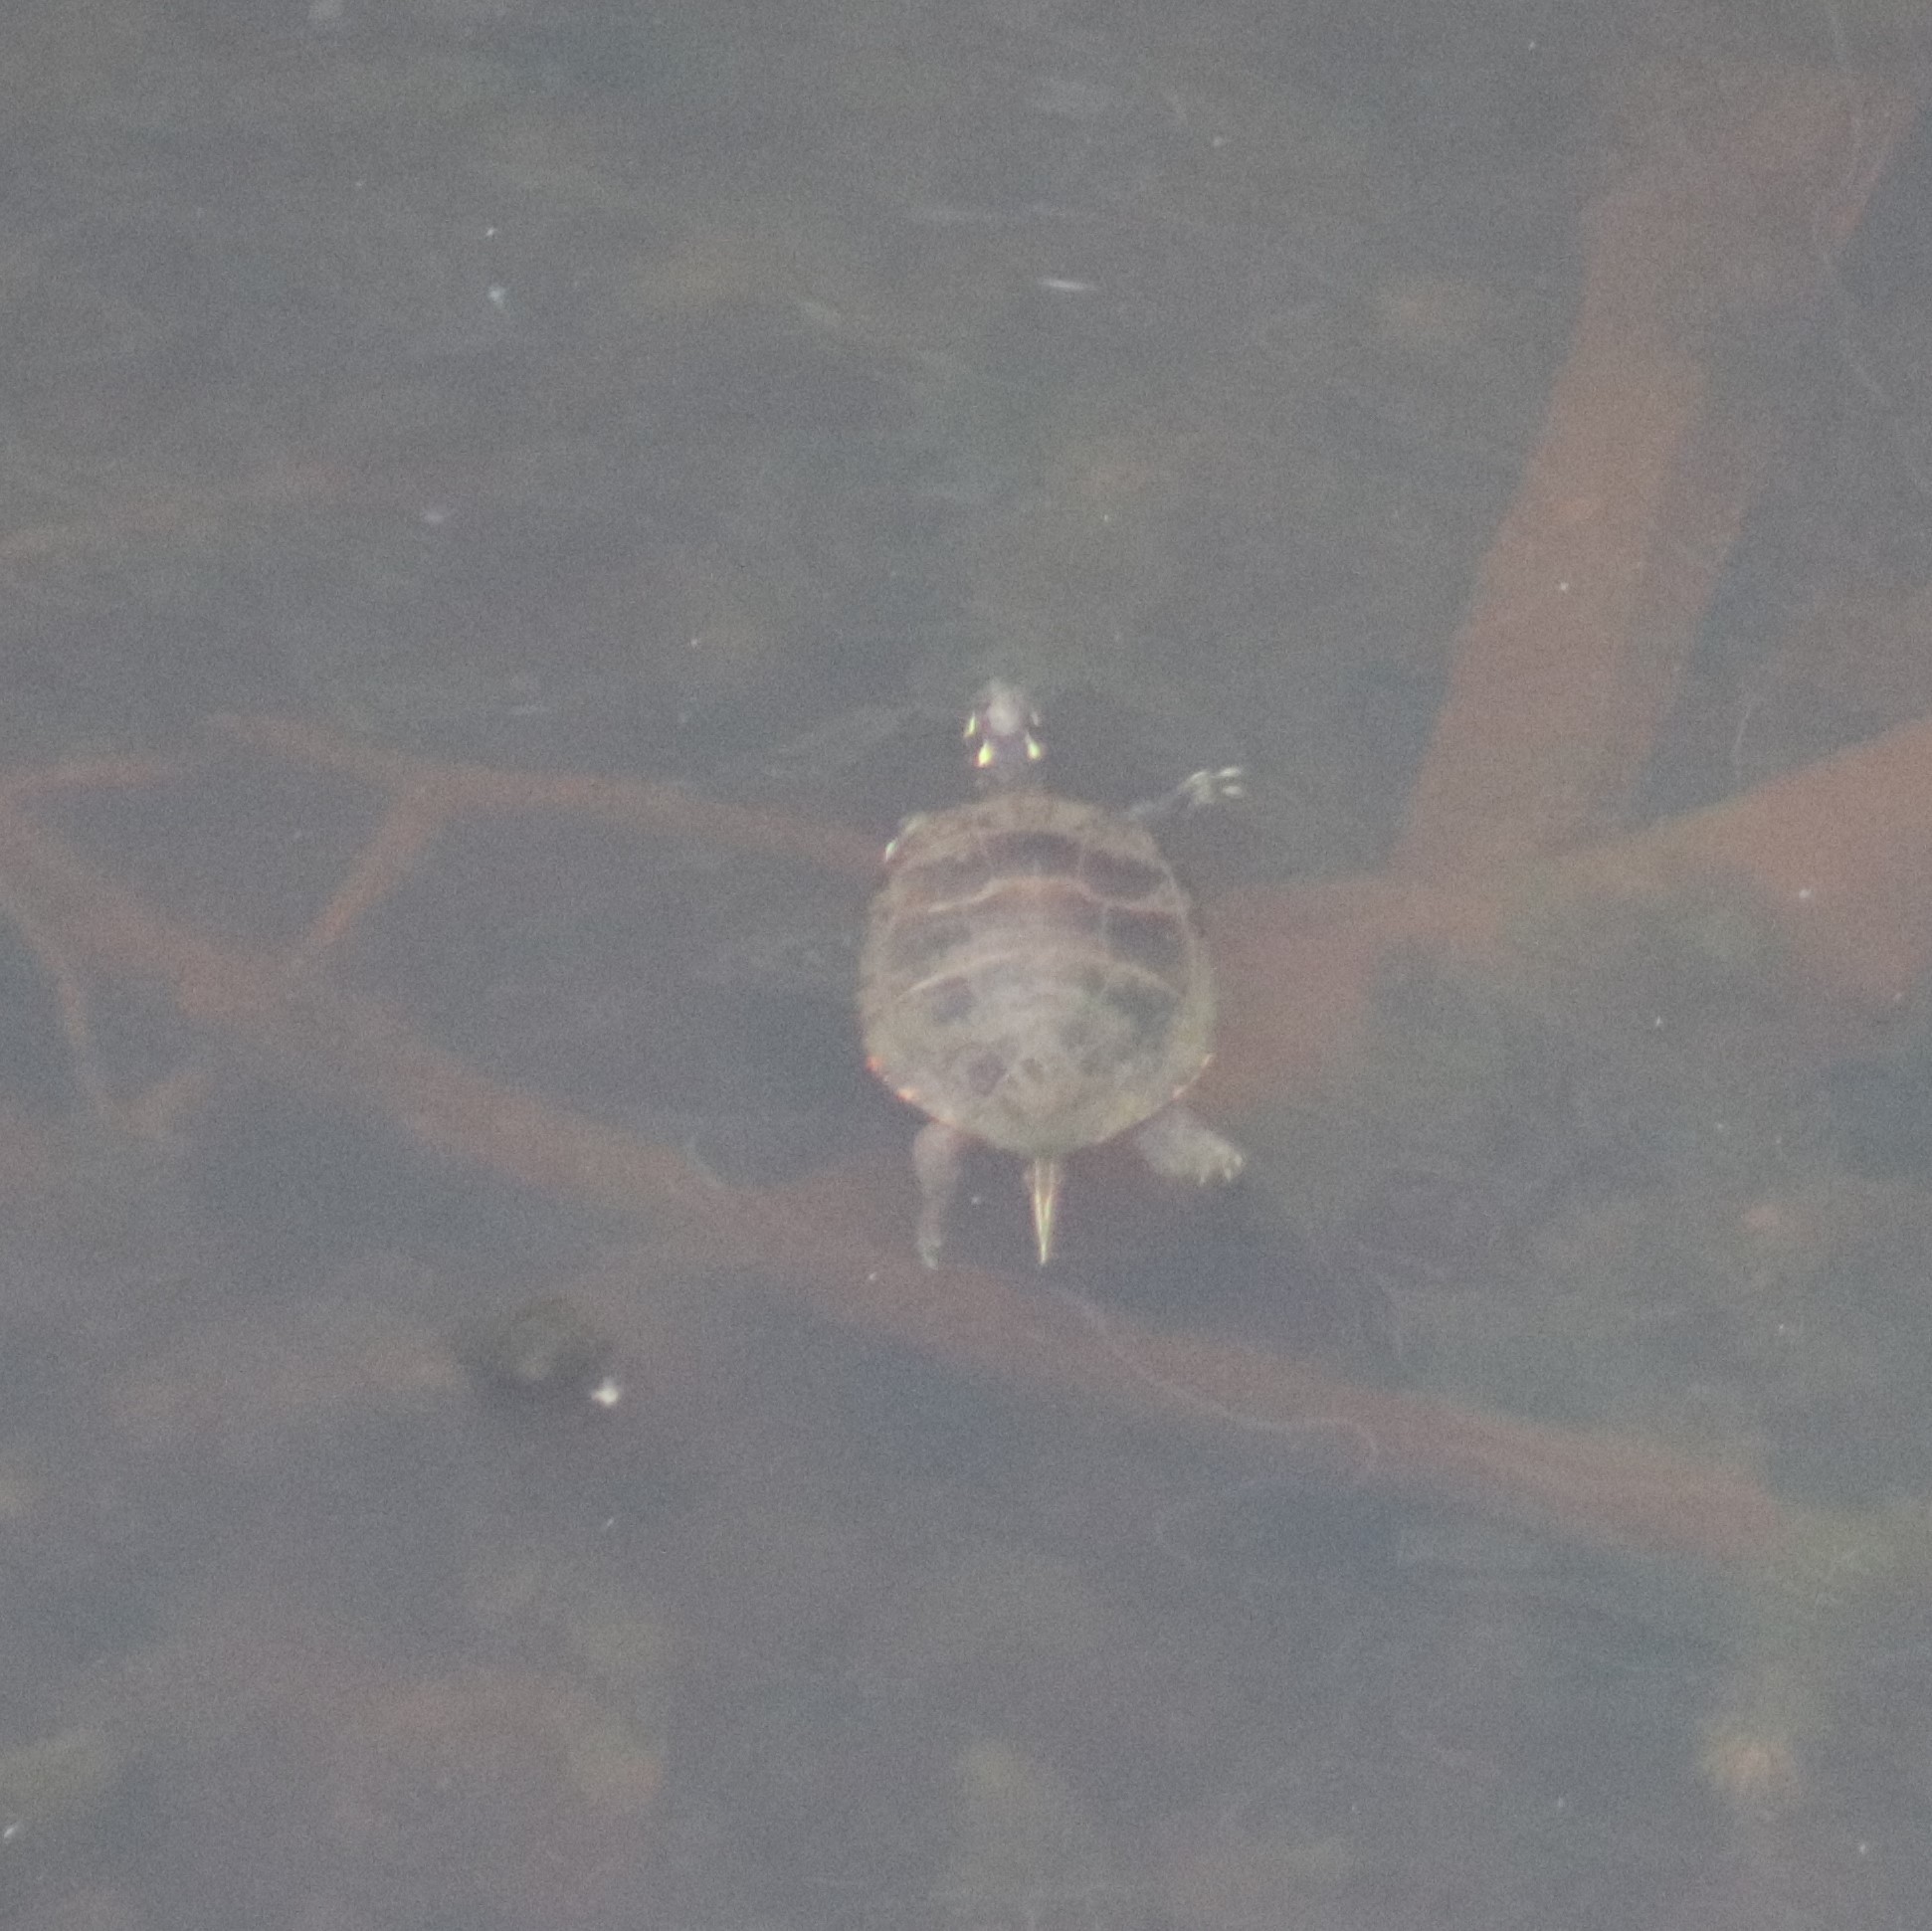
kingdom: Animalia
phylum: Chordata
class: Testudines
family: Emydidae
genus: Chrysemys
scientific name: Chrysemys picta
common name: Painted turtle
